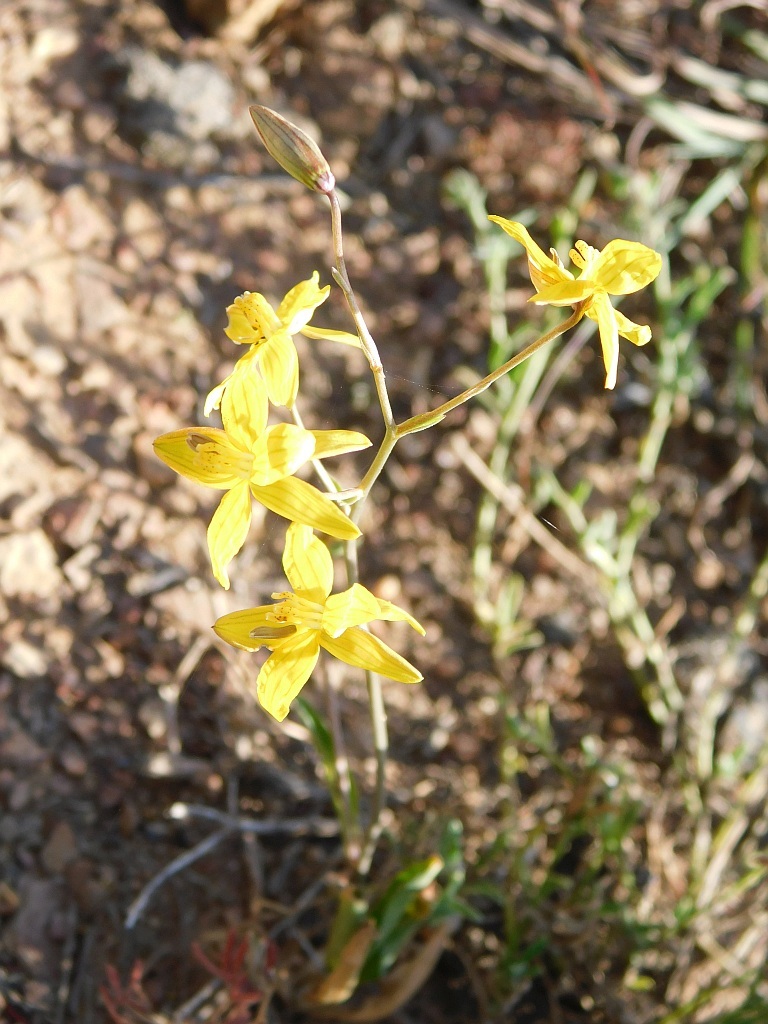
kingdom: Plantae
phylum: Tracheophyta
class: Liliopsida
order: Asparagales
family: Tecophilaeaceae
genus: Cyanella
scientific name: Cyanella lutea
